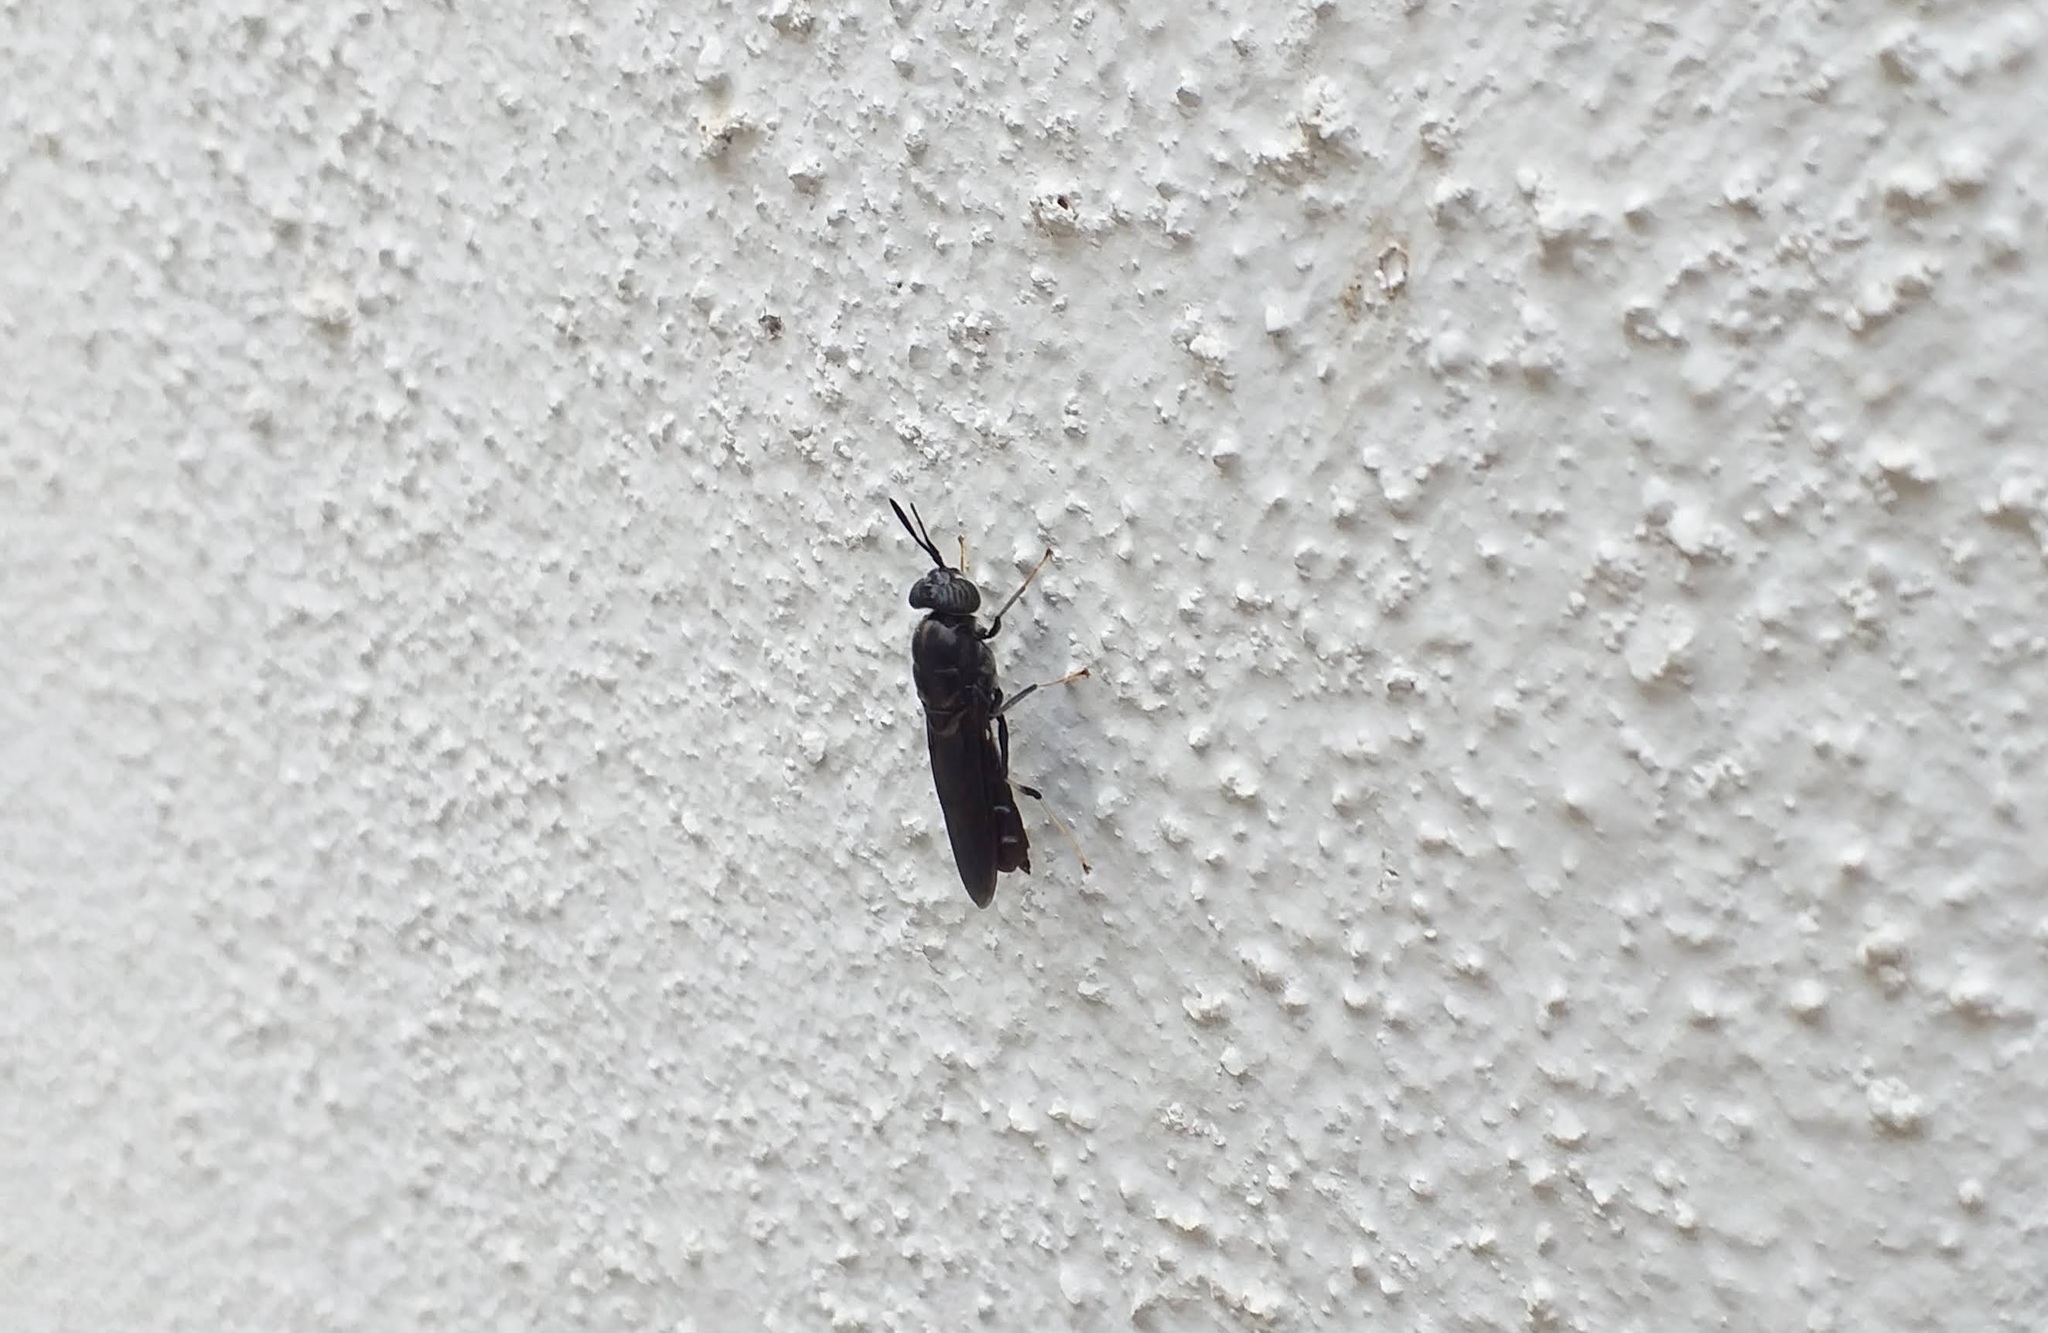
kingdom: Animalia
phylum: Arthropoda
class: Insecta
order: Diptera
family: Stratiomyidae
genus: Hermetia
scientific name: Hermetia illucens
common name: Black soldier fly
